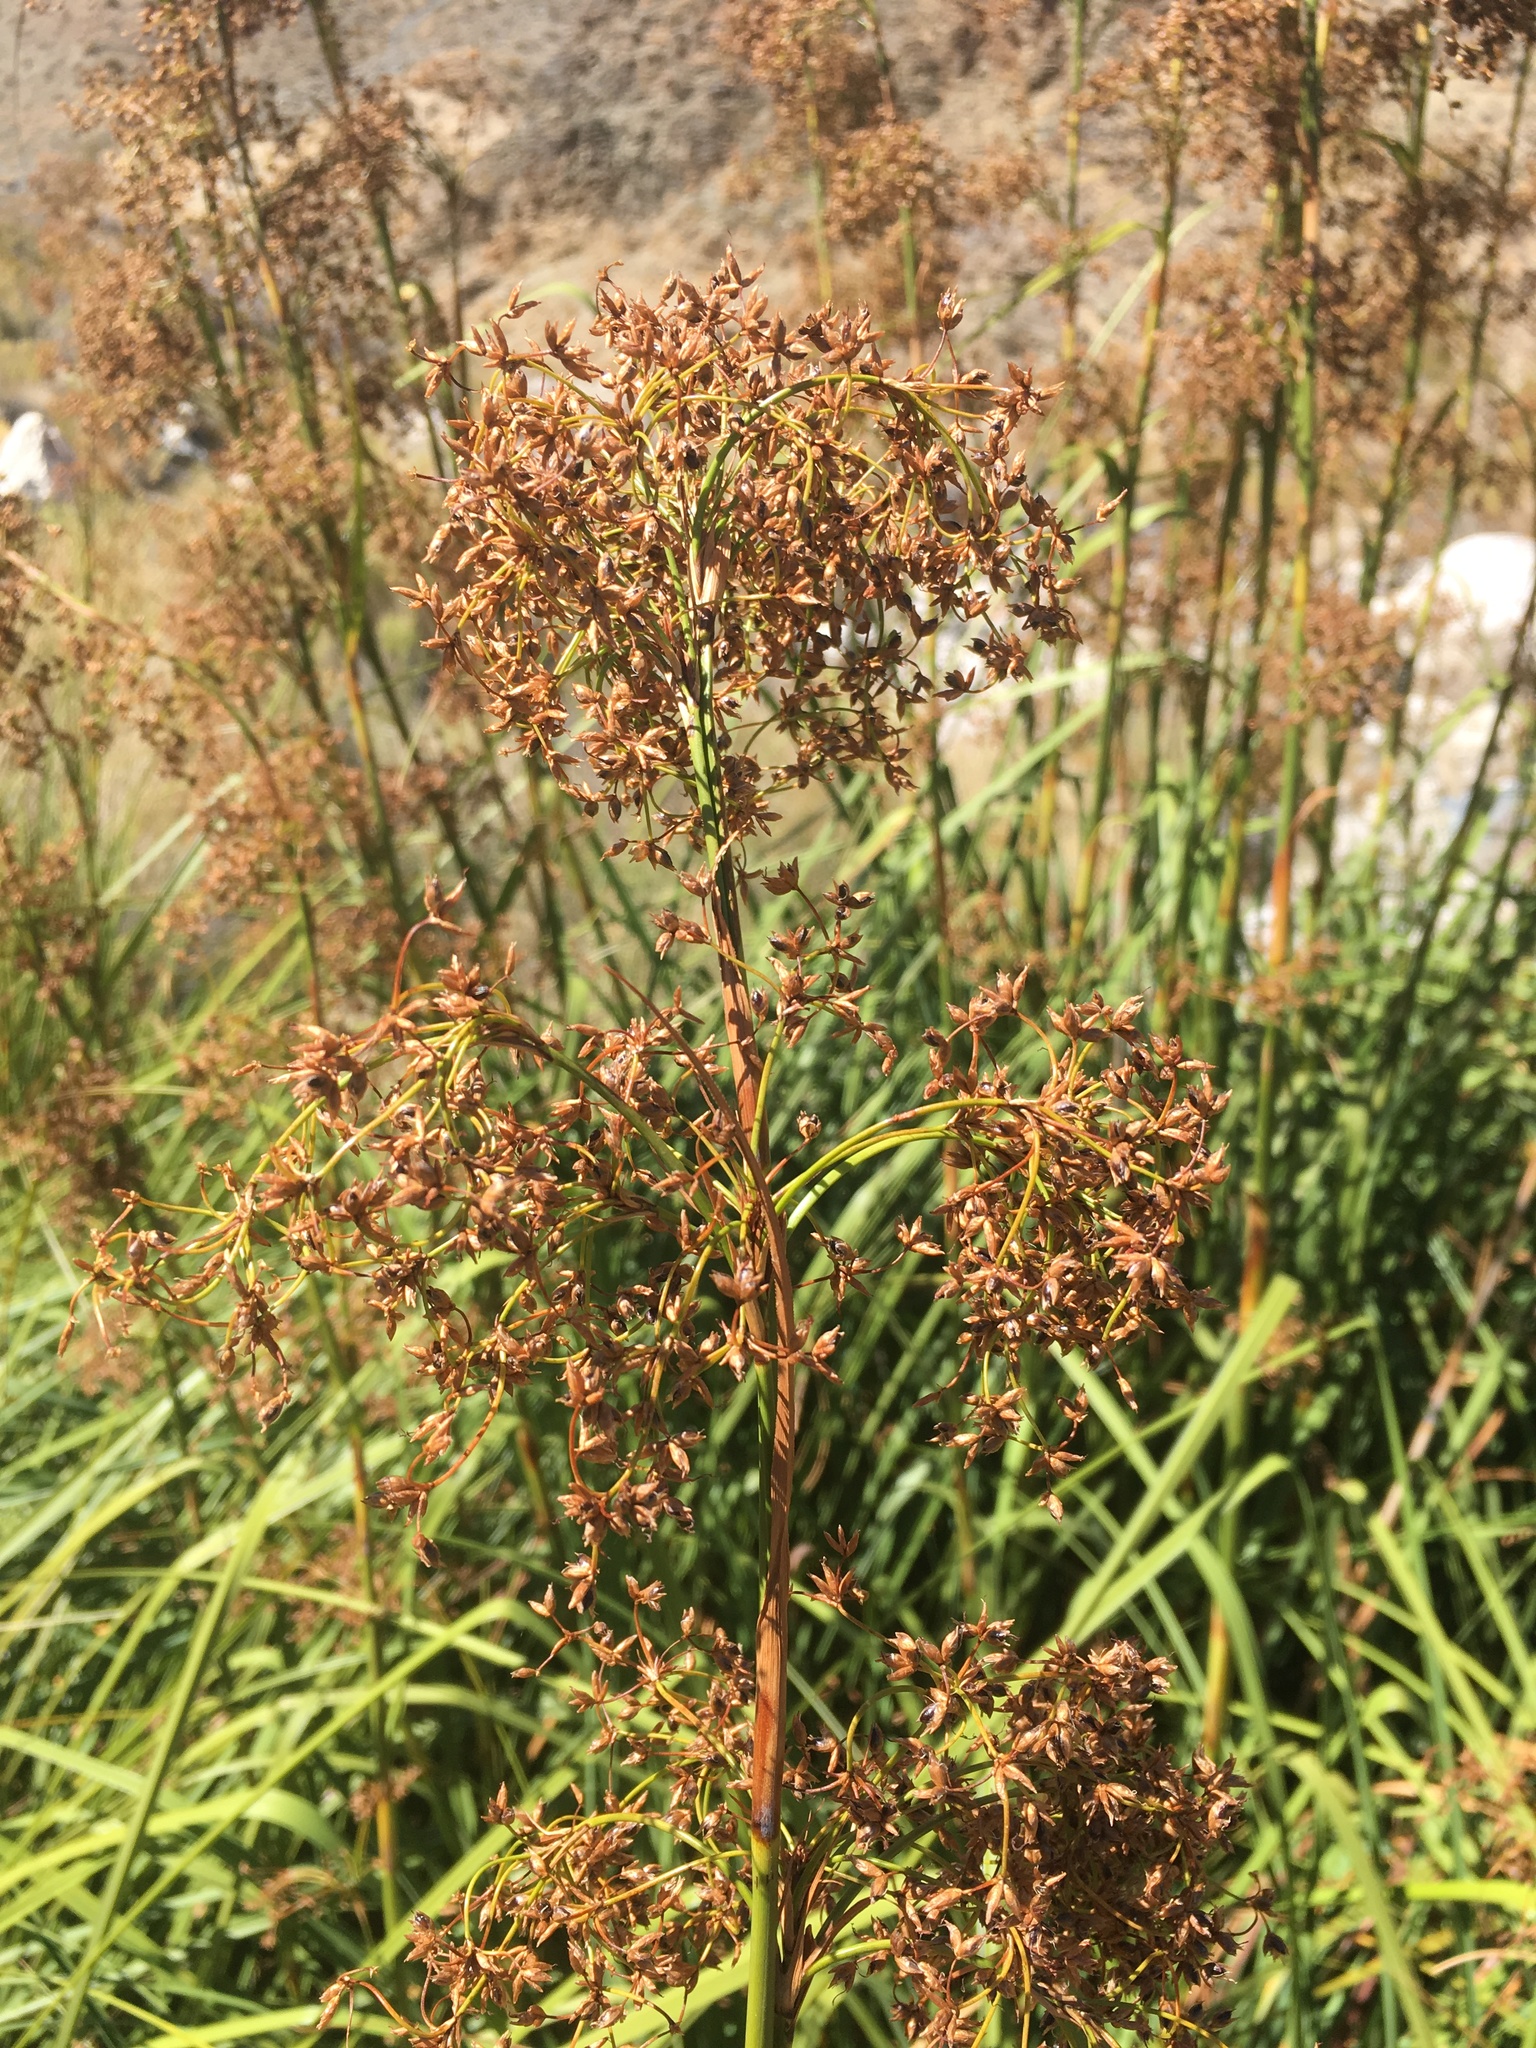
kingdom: Plantae
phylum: Tracheophyta
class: Liliopsida
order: Poales
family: Cyperaceae
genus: Cladium
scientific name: Cladium mariscus
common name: Great fen-sedge
